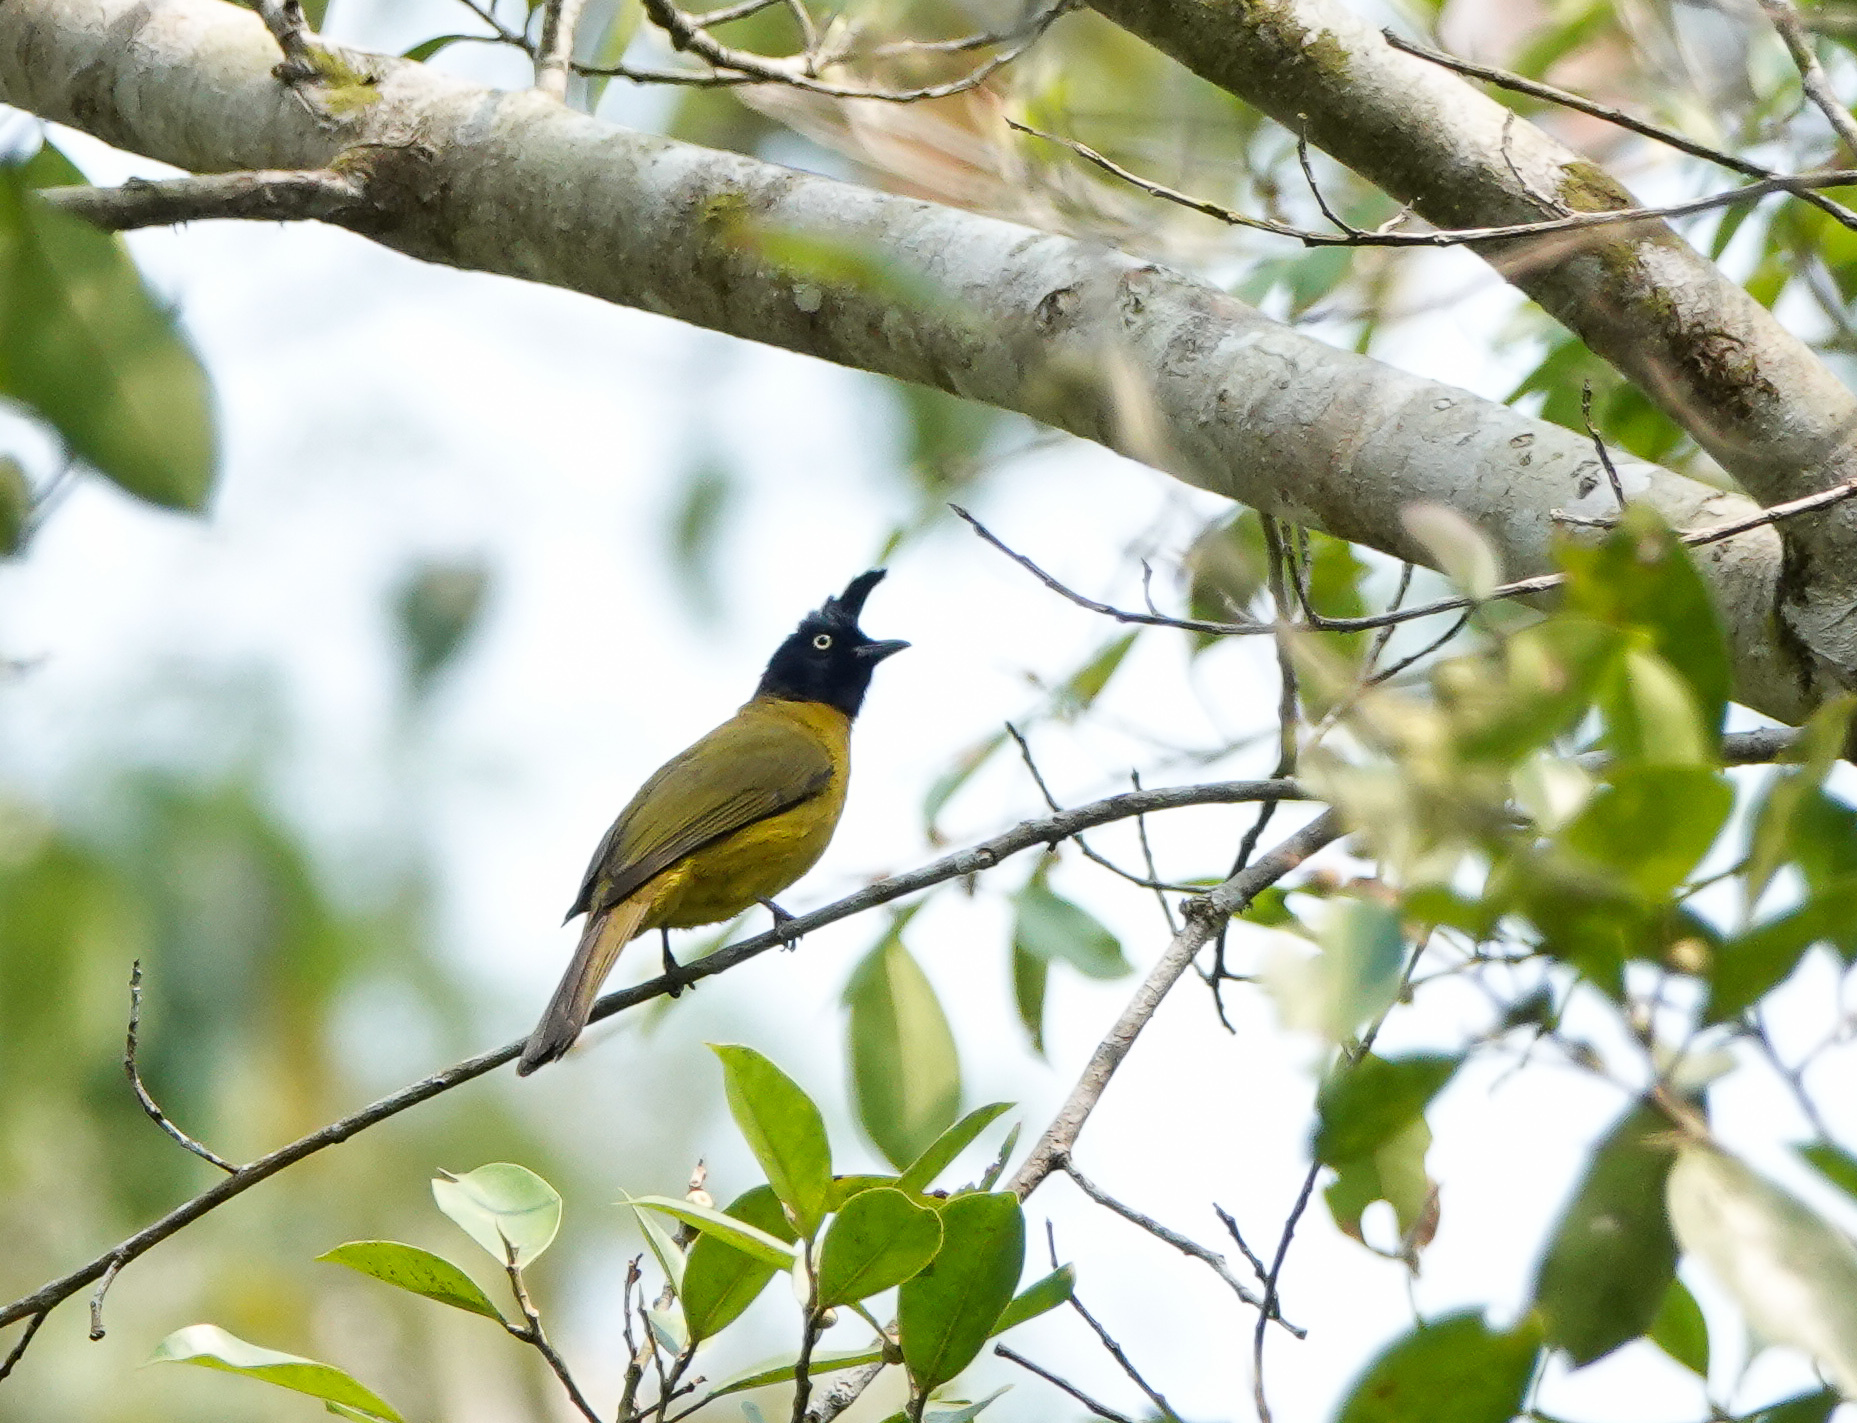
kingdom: Animalia
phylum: Chordata
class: Aves
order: Passeriformes
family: Pycnonotidae
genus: Pycnonotus
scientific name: Pycnonotus flaviventris
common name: Black-crested bulbul
